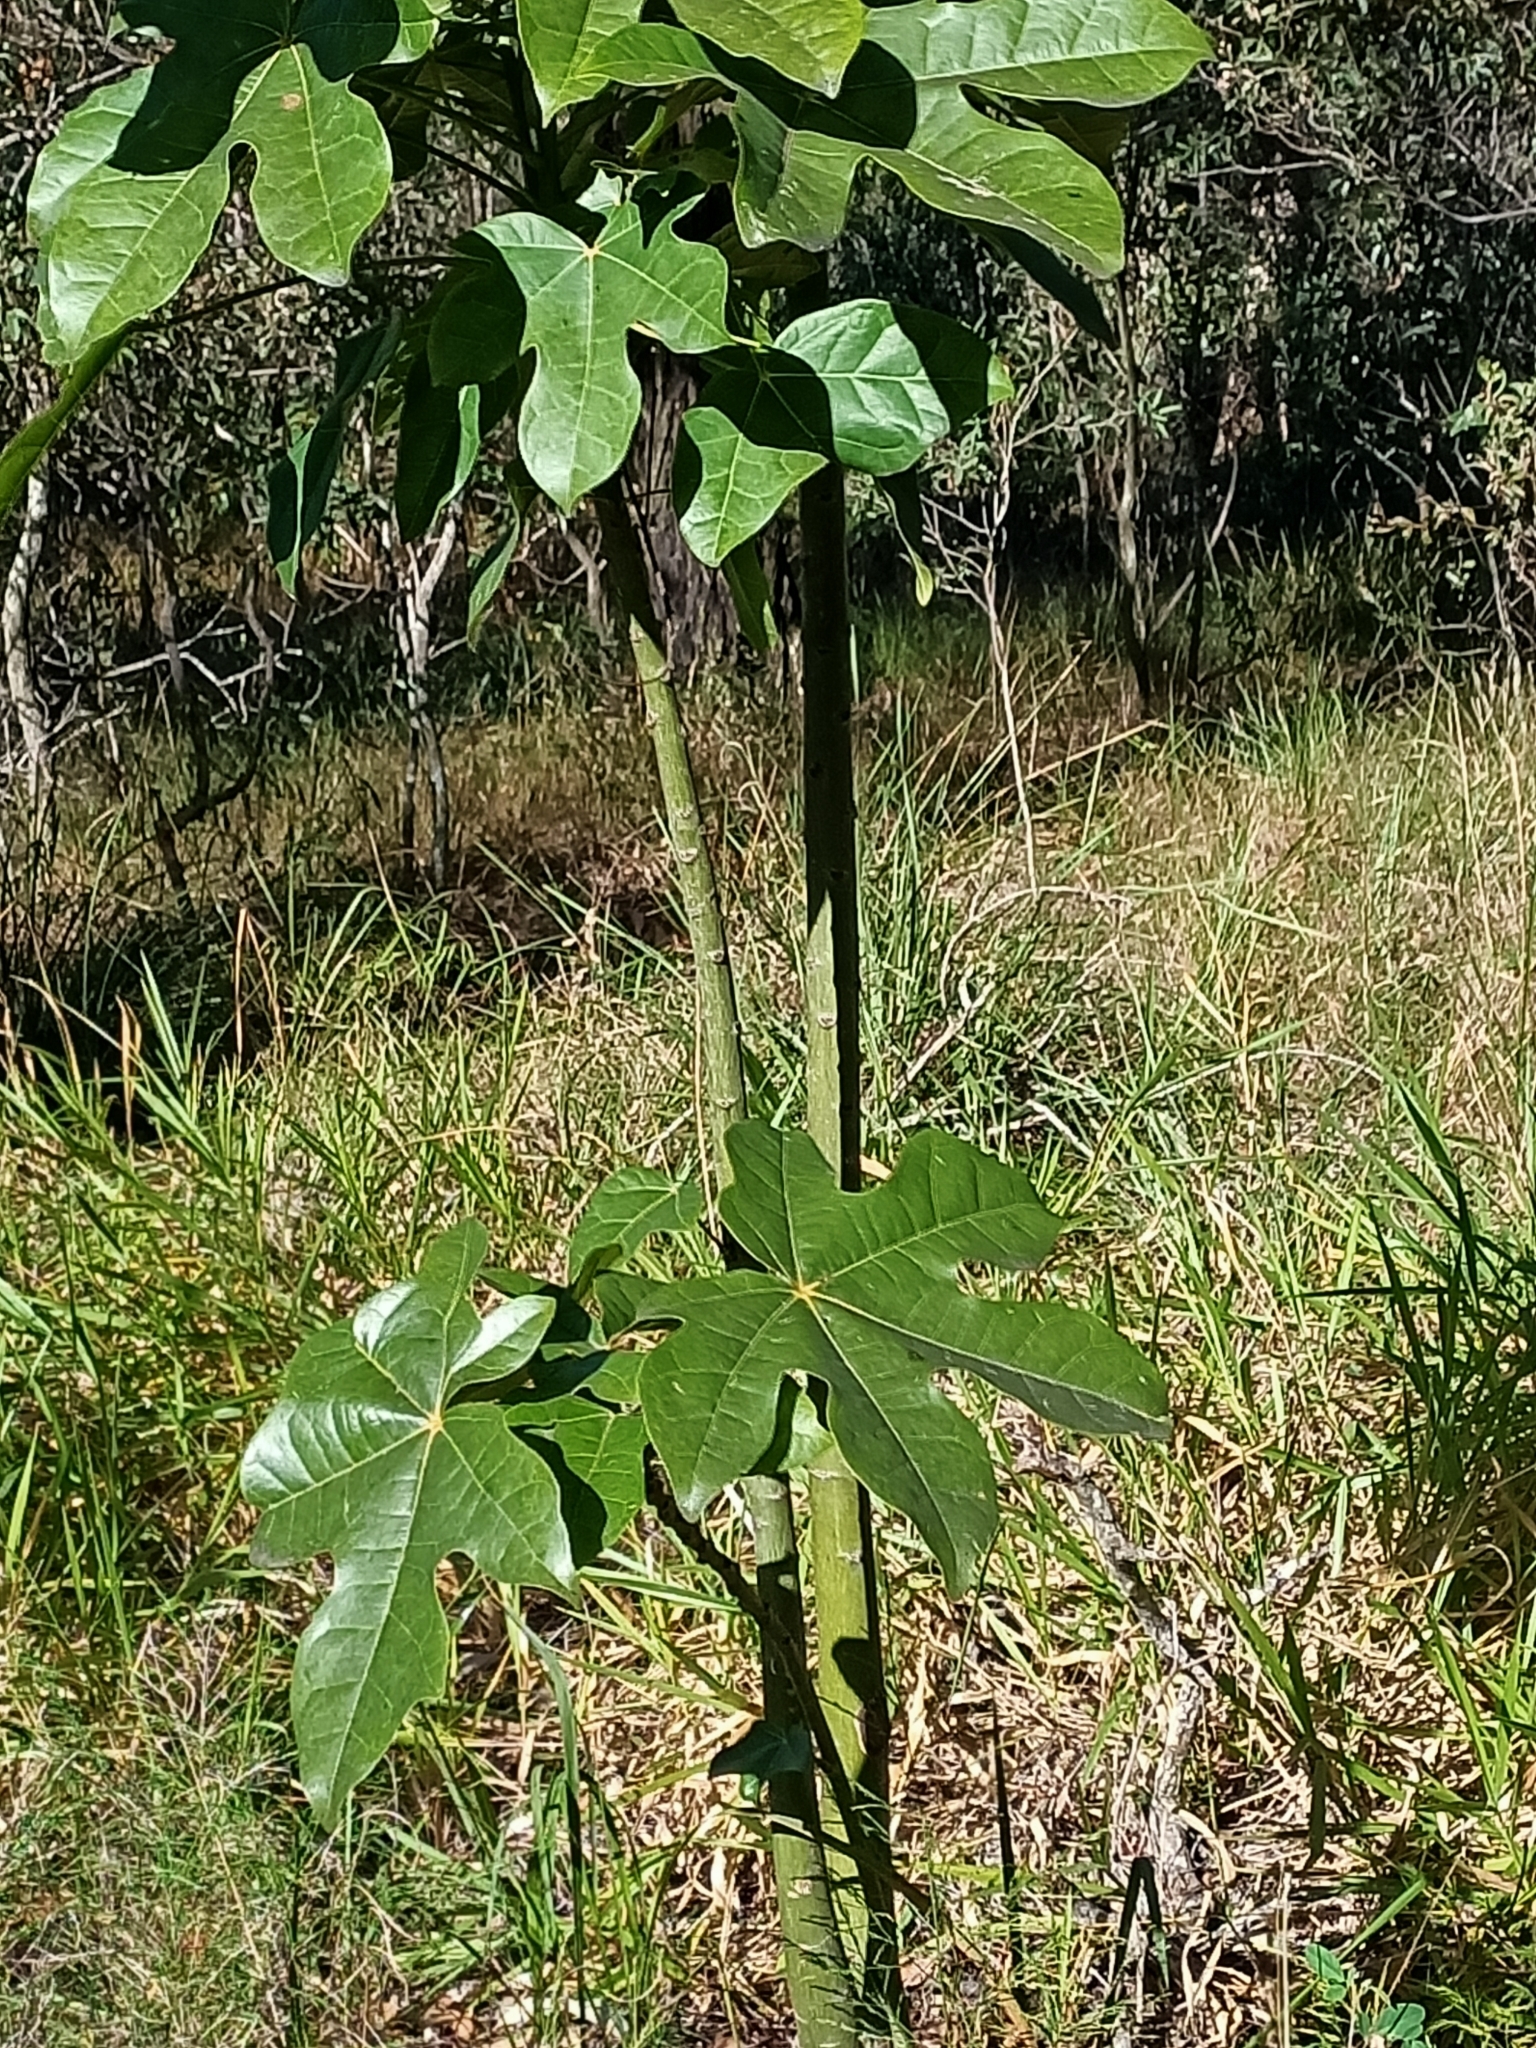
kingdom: Plantae
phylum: Tracheophyta
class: Magnoliopsida
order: Malvales
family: Malvaceae
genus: Brachychiton
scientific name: Brachychiton acerifolius
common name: Illawarra flame tree
